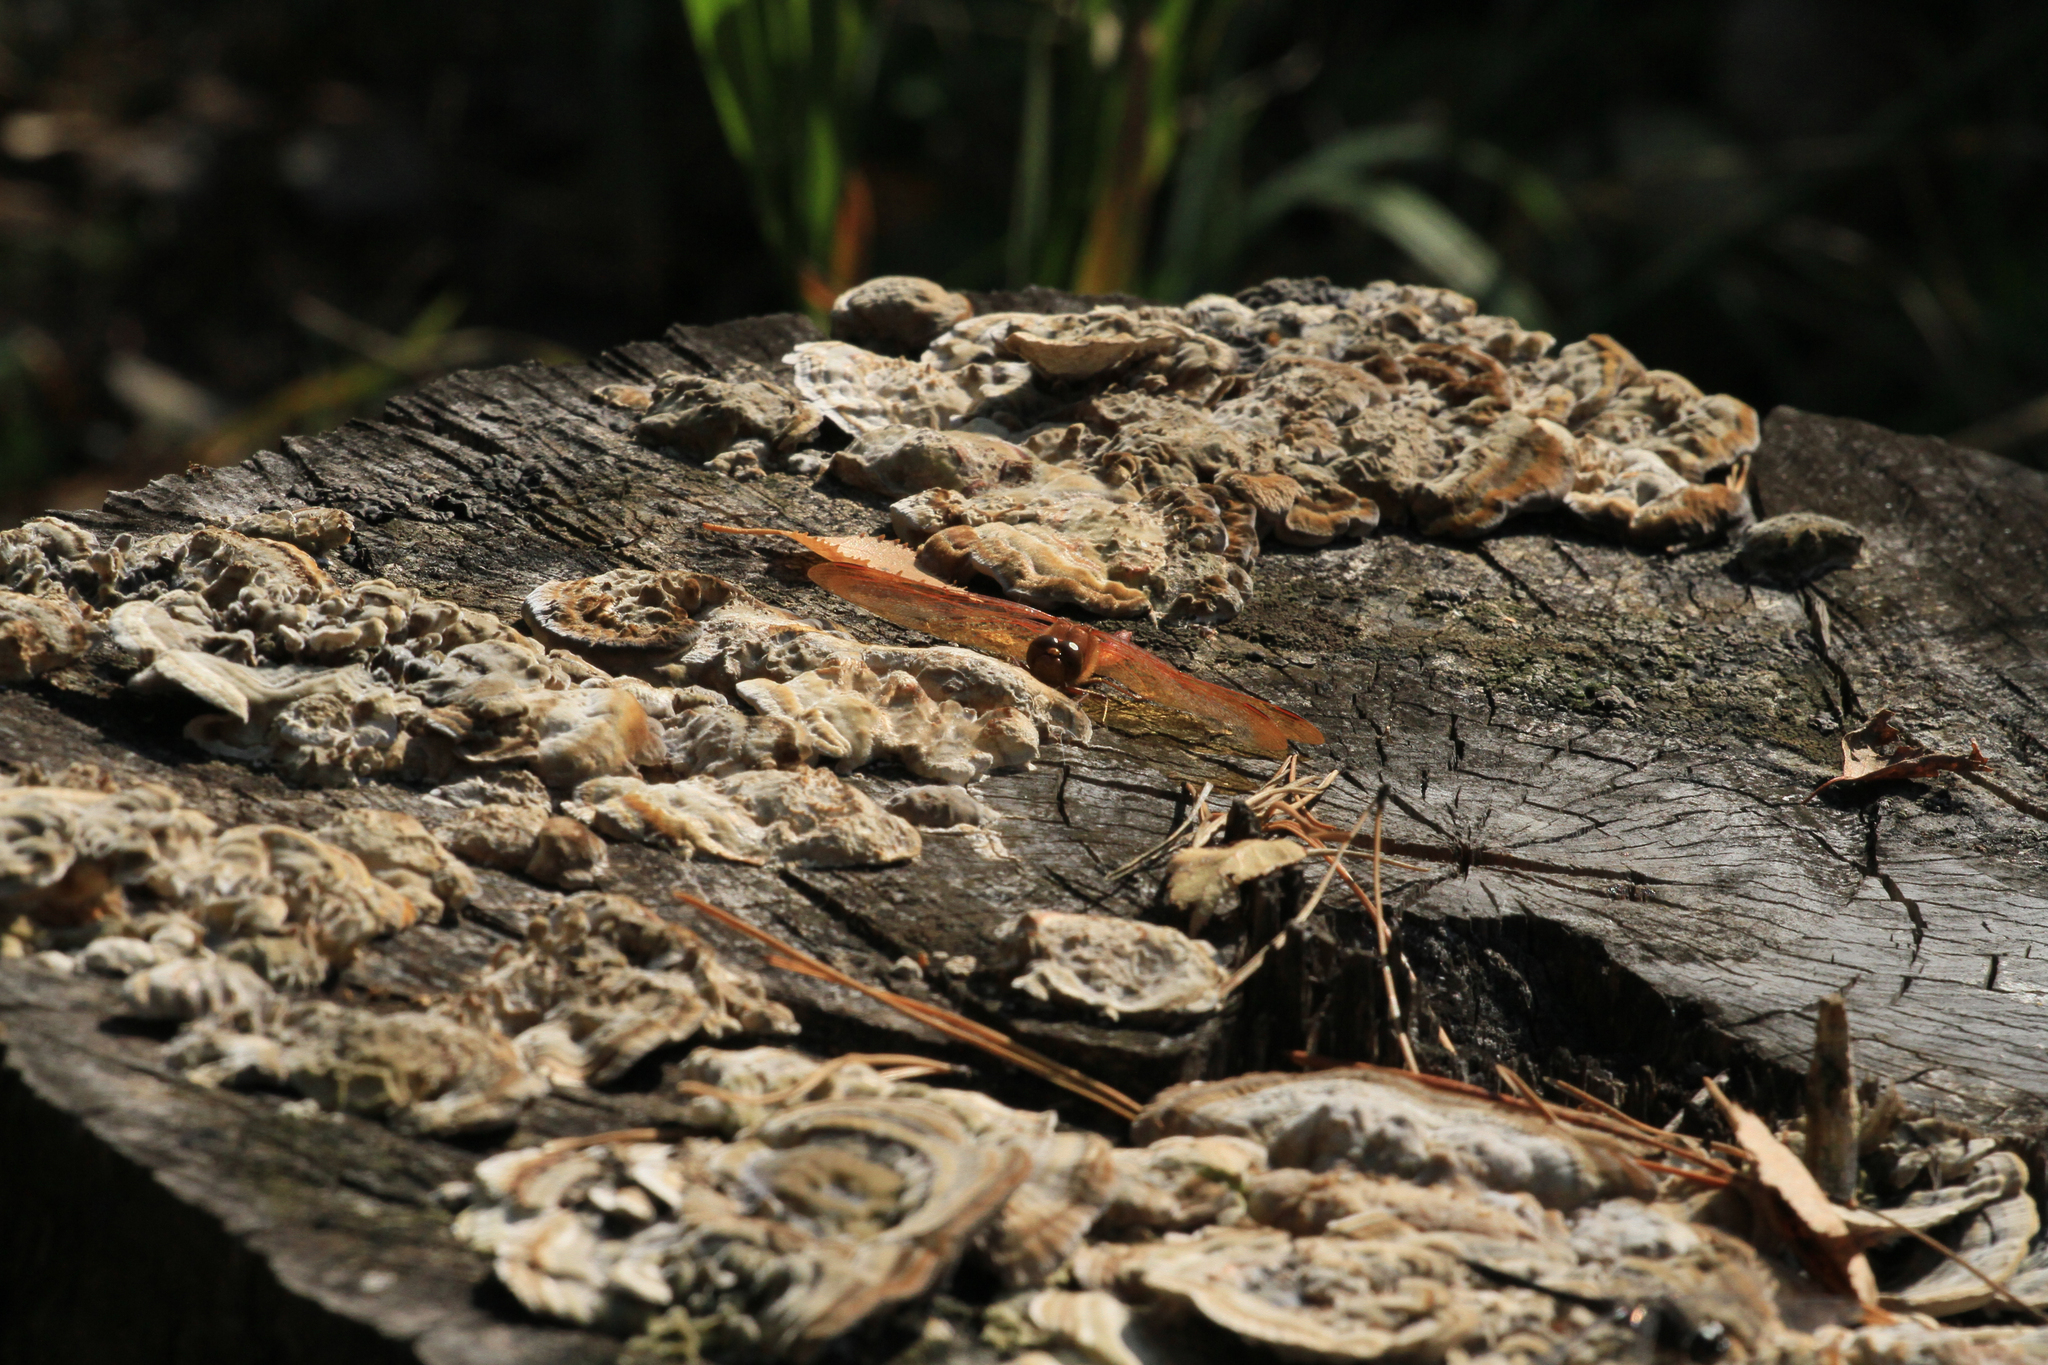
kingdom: Animalia
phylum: Arthropoda
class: Insecta
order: Odonata
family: Libellulidae
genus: Sympetrum
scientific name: Sympetrum croceolum
